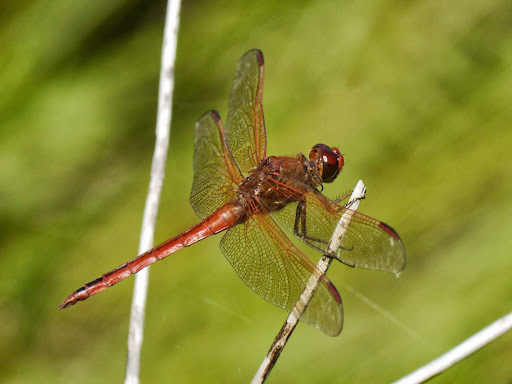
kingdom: Animalia
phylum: Arthropoda
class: Insecta
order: Odonata
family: Libellulidae
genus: Libellula
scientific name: Libellula needhami
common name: Needham's skimmer
